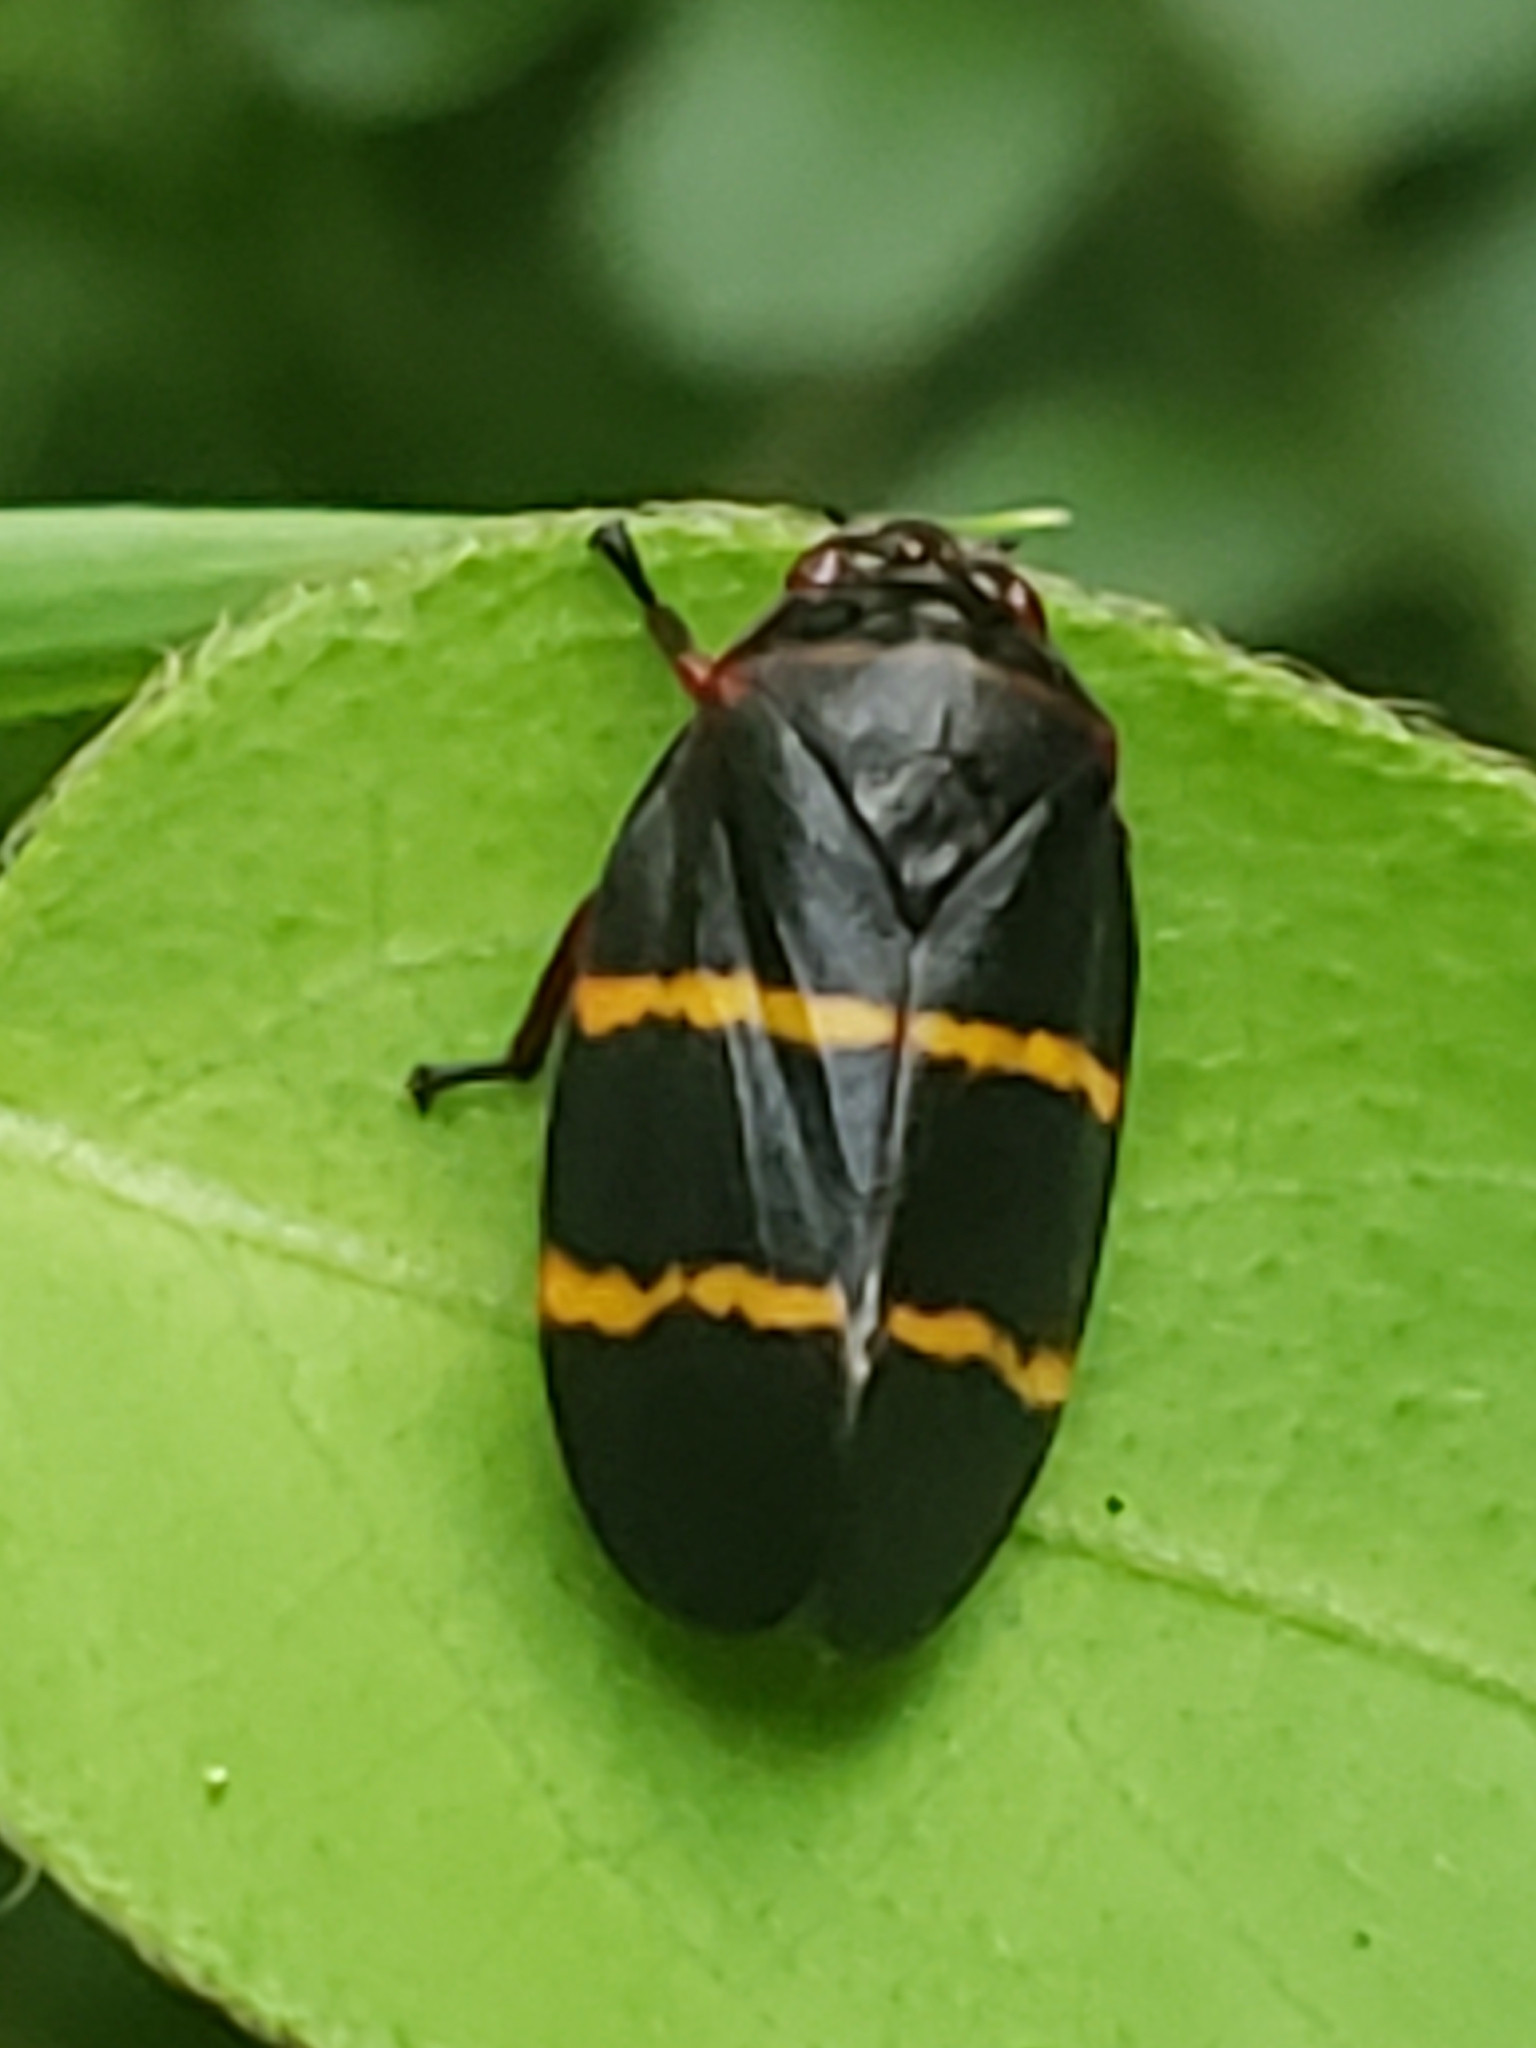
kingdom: Animalia
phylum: Arthropoda
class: Insecta
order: Hemiptera
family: Cercopidae
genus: Prosapia
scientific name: Prosapia bicincta
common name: Twolined spittlebug
